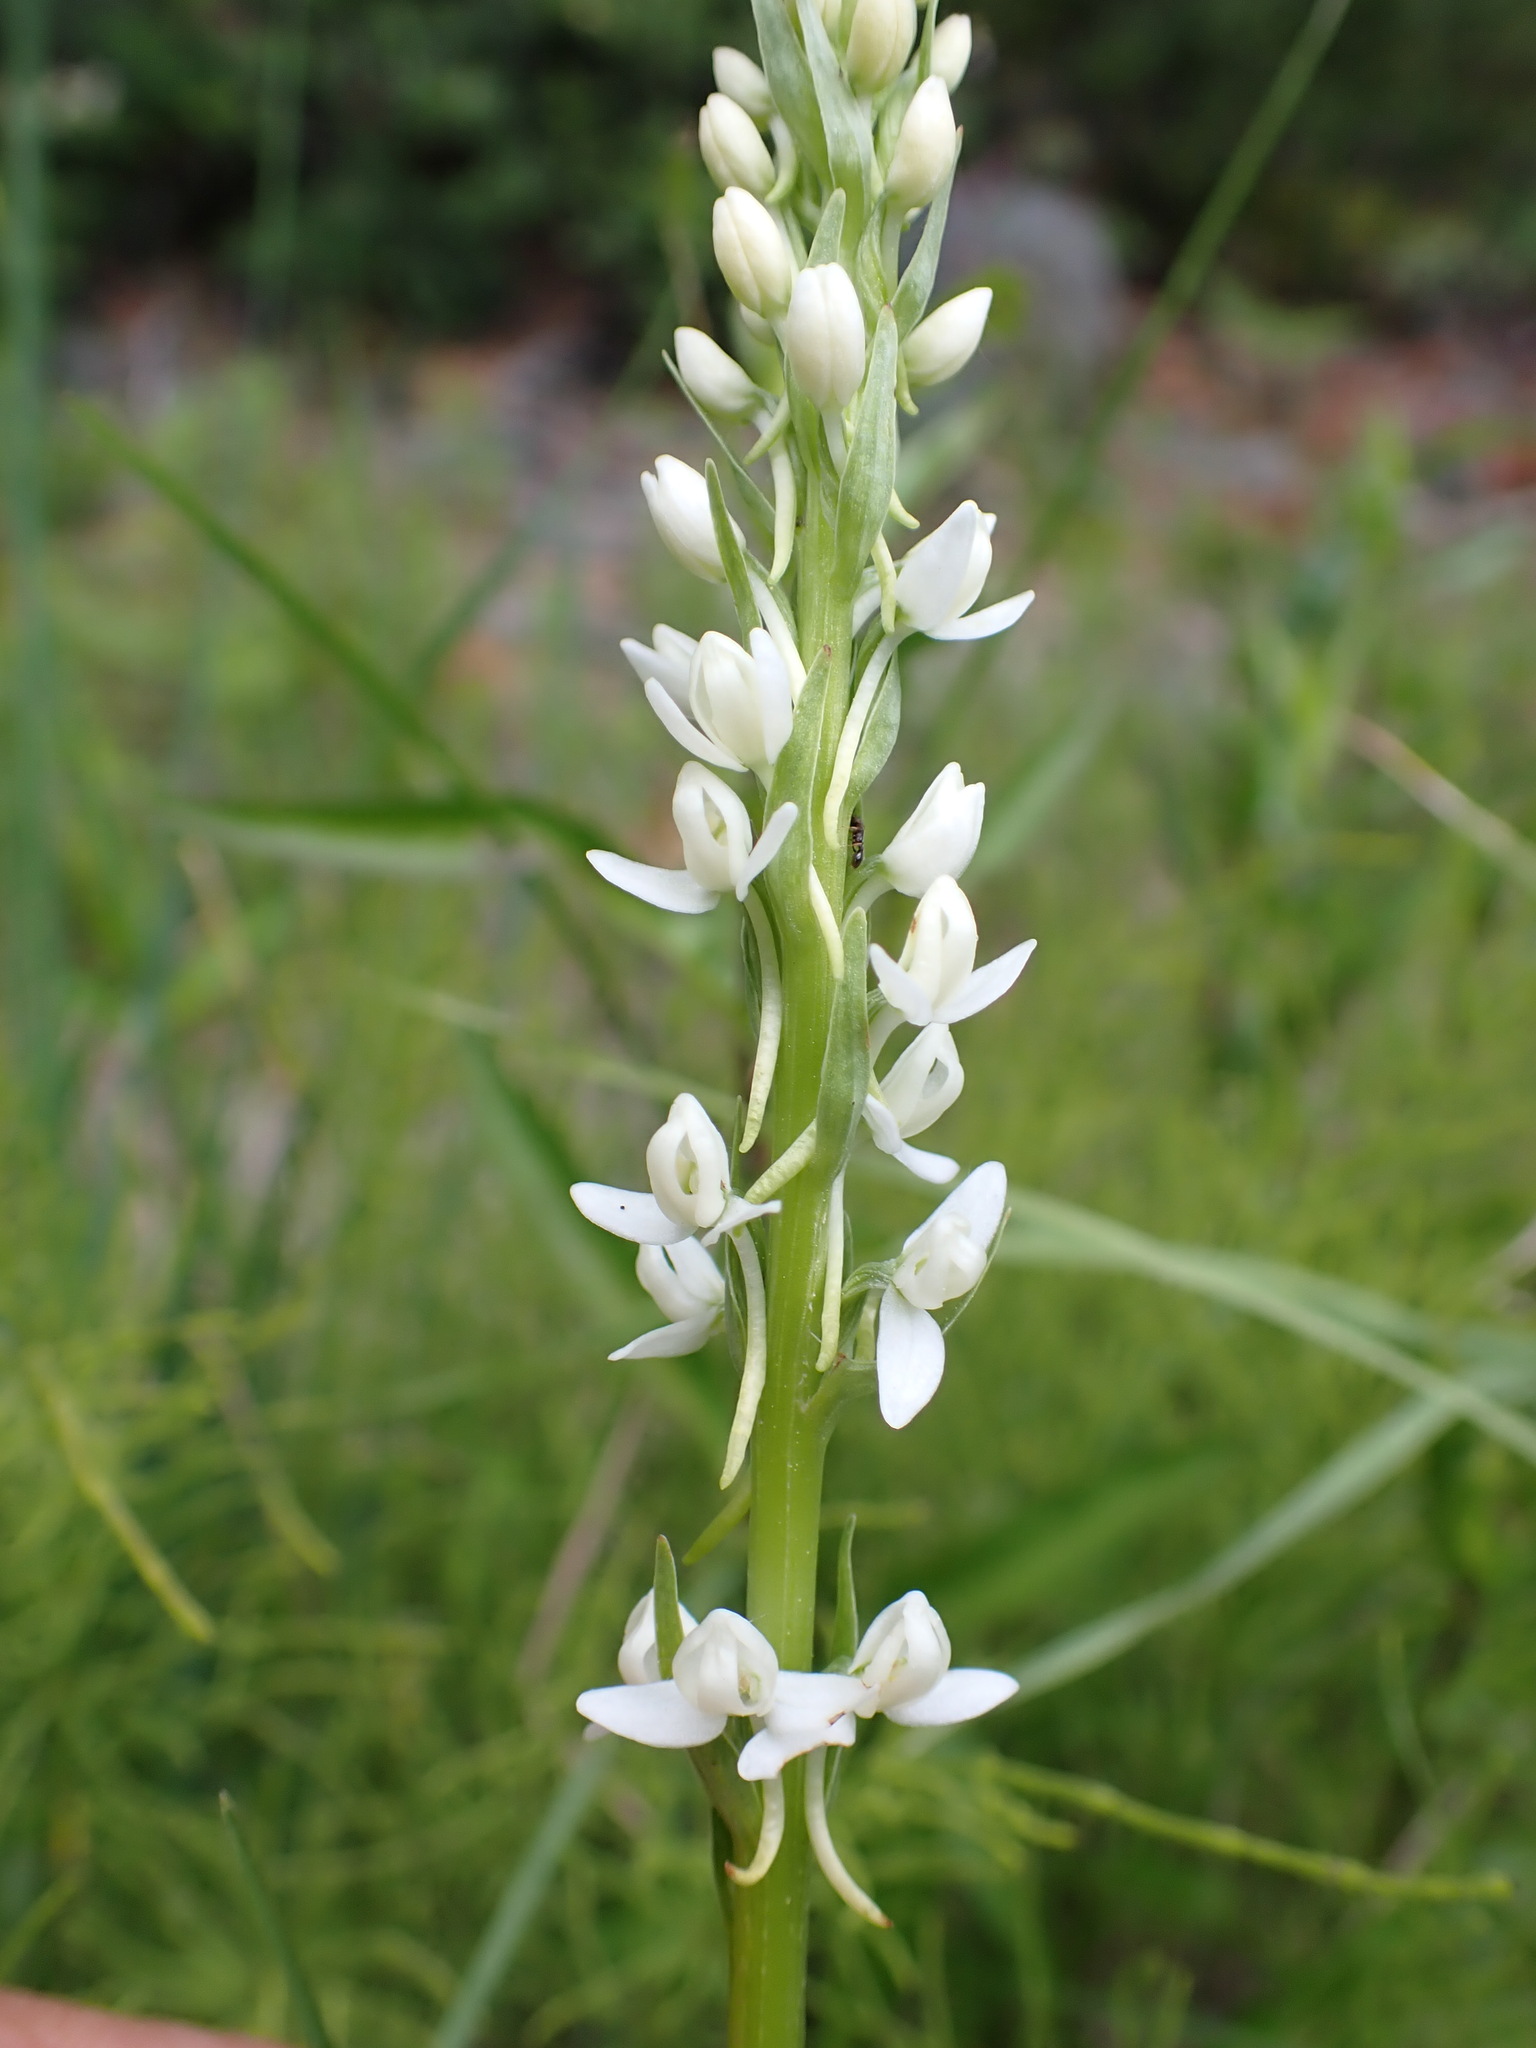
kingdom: Plantae
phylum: Tracheophyta
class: Liliopsida
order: Asparagales
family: Orchidaceae
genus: Platanthera
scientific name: Platanthera dilatata
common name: Bog candles
